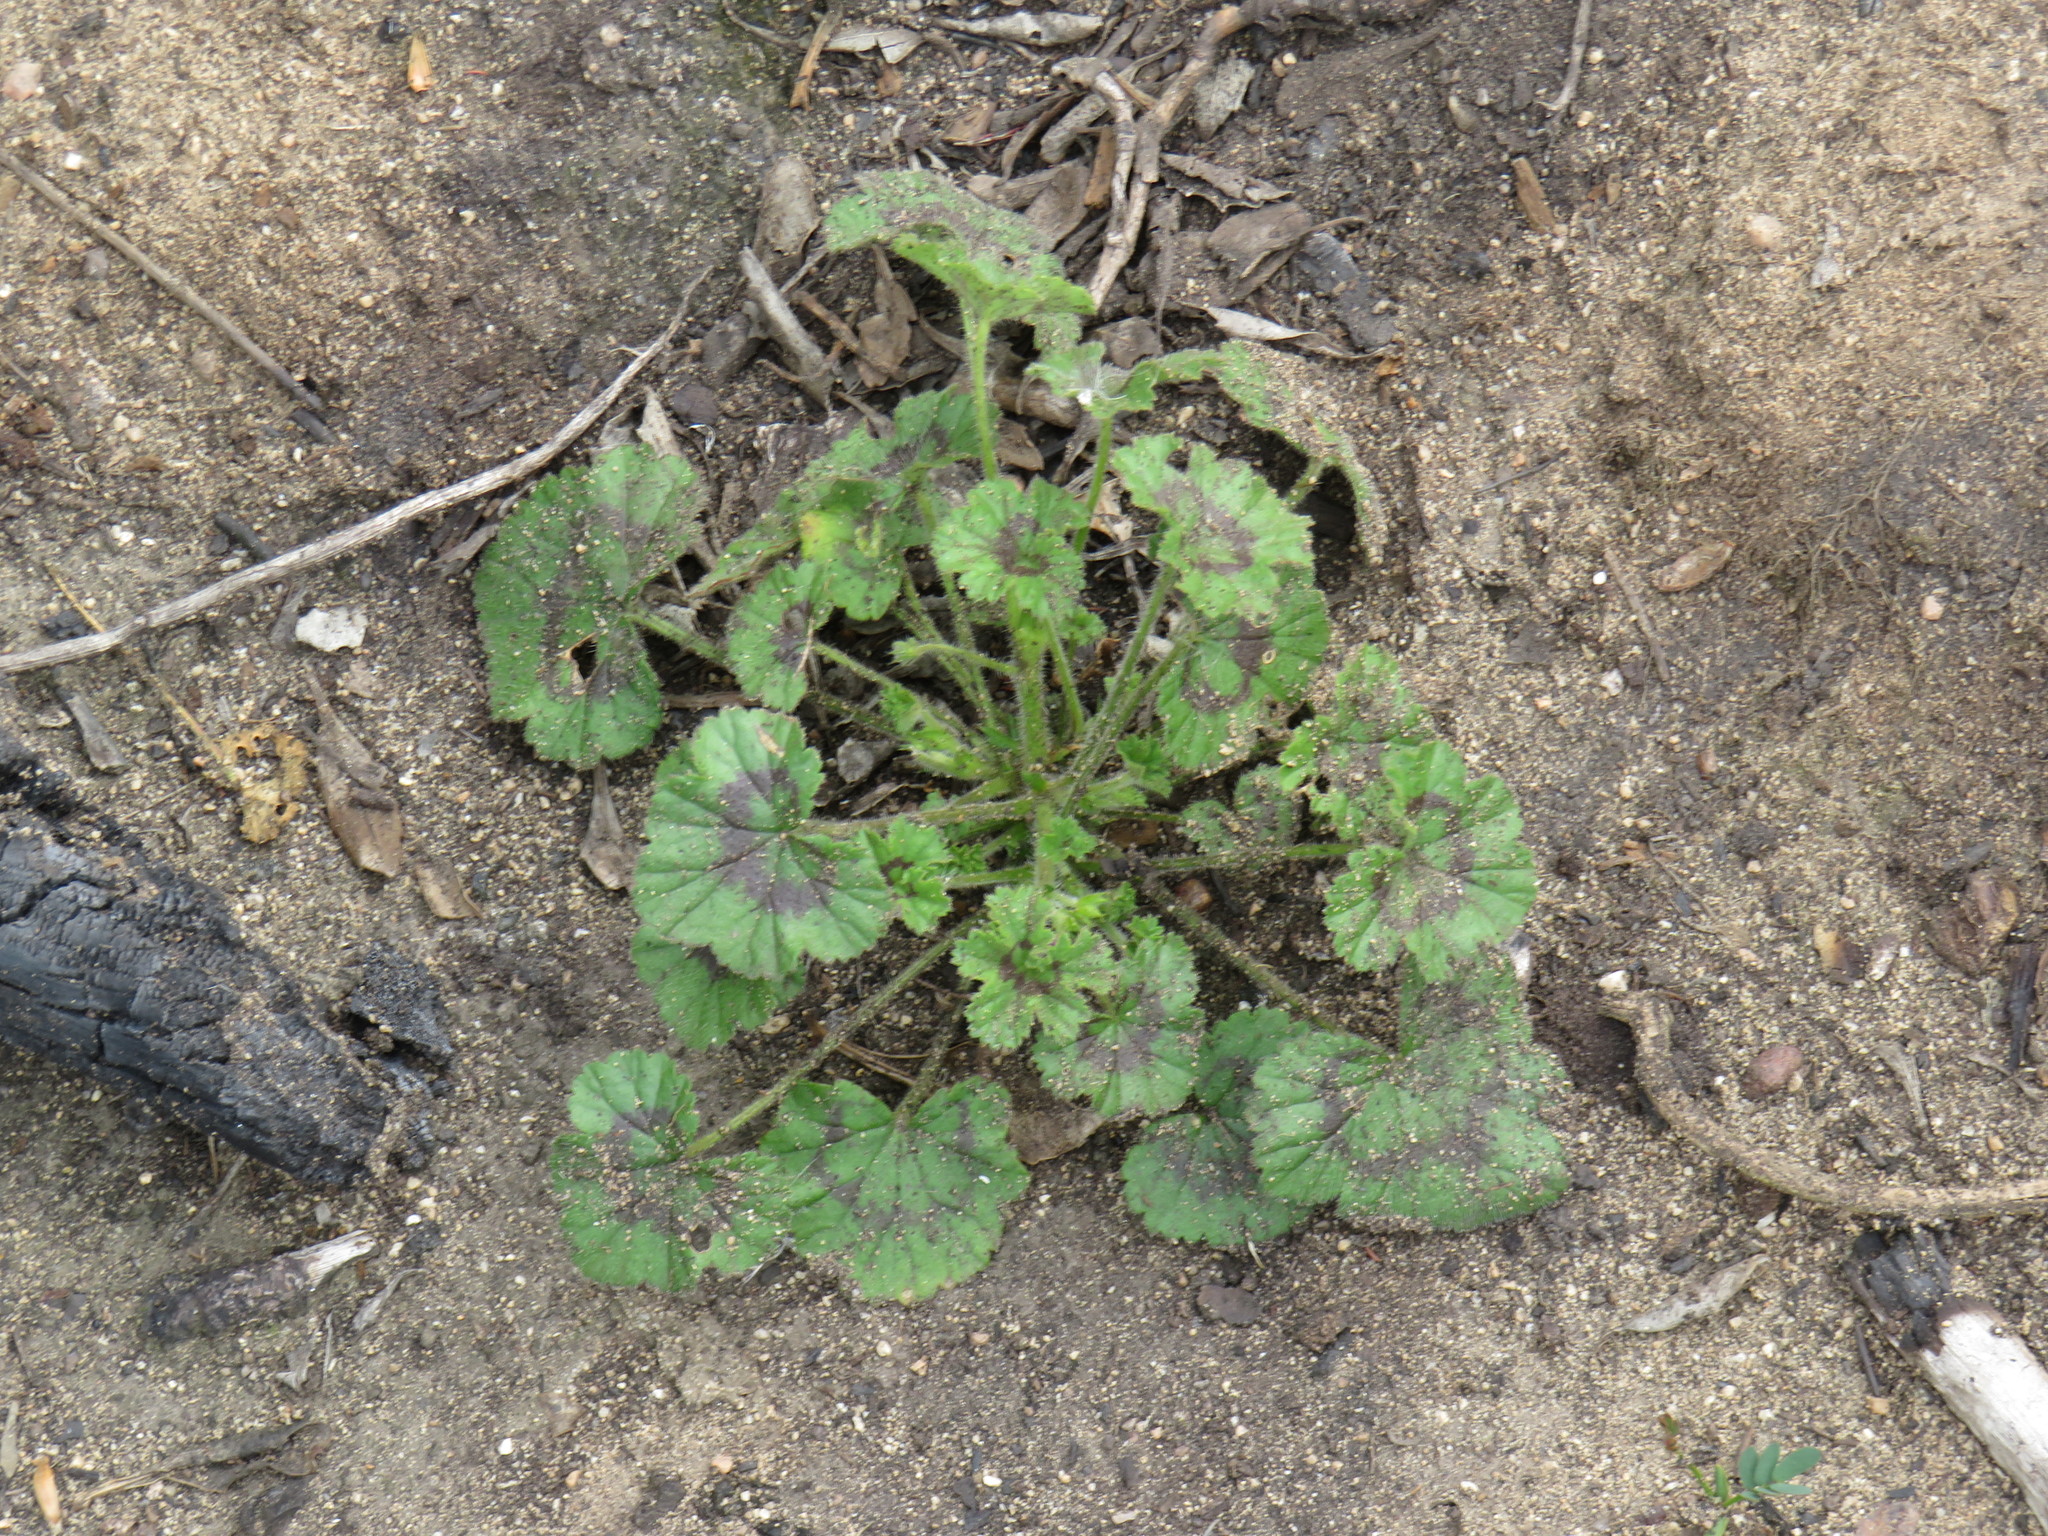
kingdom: Plantae
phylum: Tracheophyta
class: Magnoliopsida
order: Geraniales
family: Geraniaceae
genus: Pelargonium
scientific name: Pelargonium elongatum
